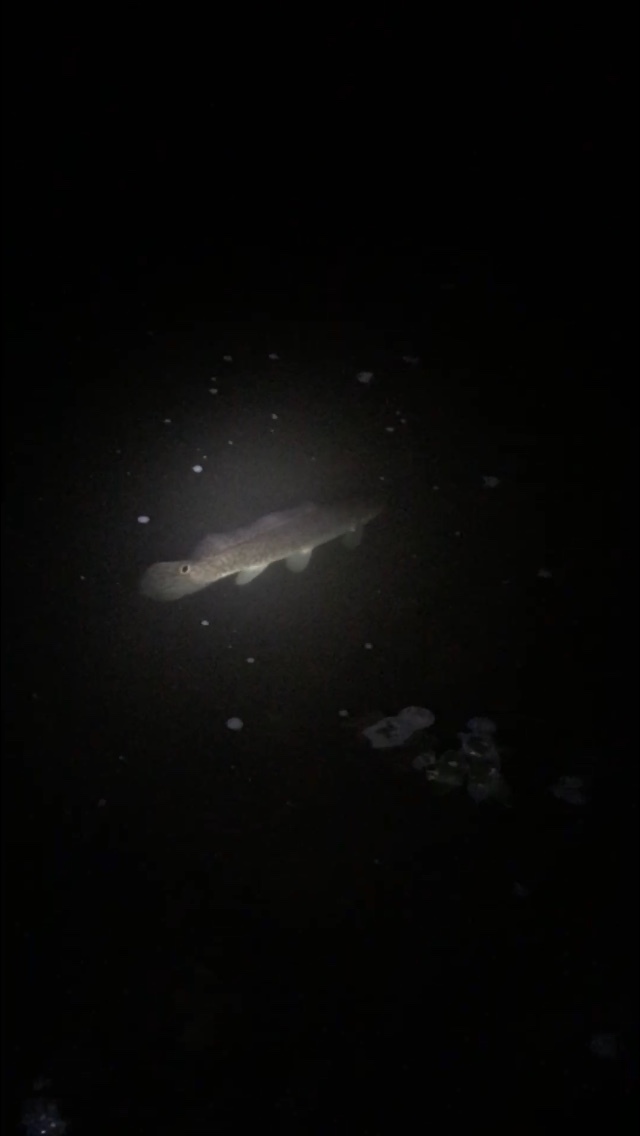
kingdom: Animalia
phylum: Chordata
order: Amiiformes
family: Amiidae
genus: Amia
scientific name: Amia calva
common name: Bowfin
